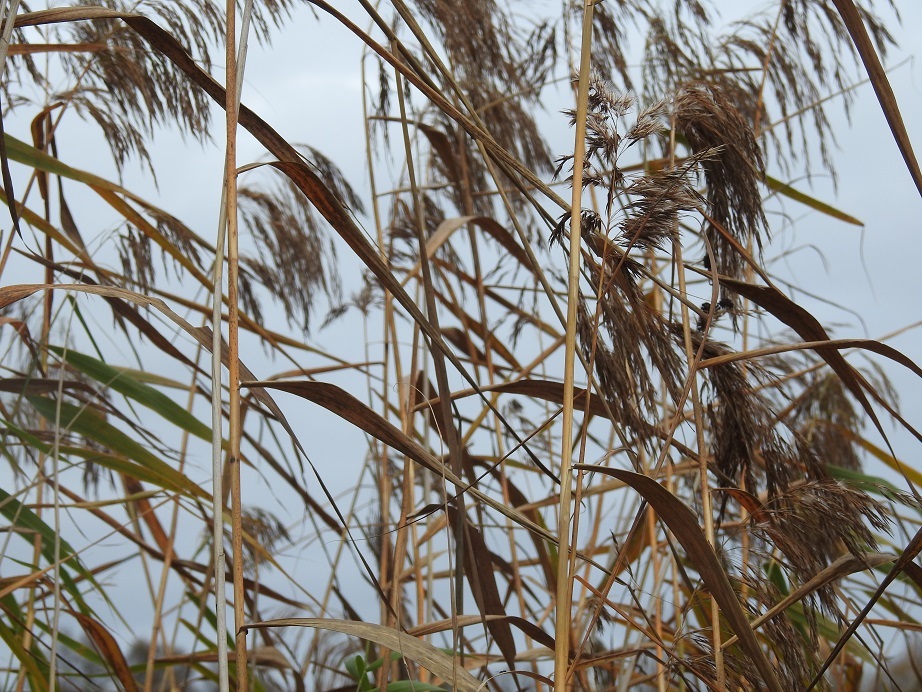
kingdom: Plantae
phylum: Tracheophyta
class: Liliopsida
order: Poales
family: Typhaceae
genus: Typha
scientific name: Typha angustifolia
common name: Lesser bulrush
